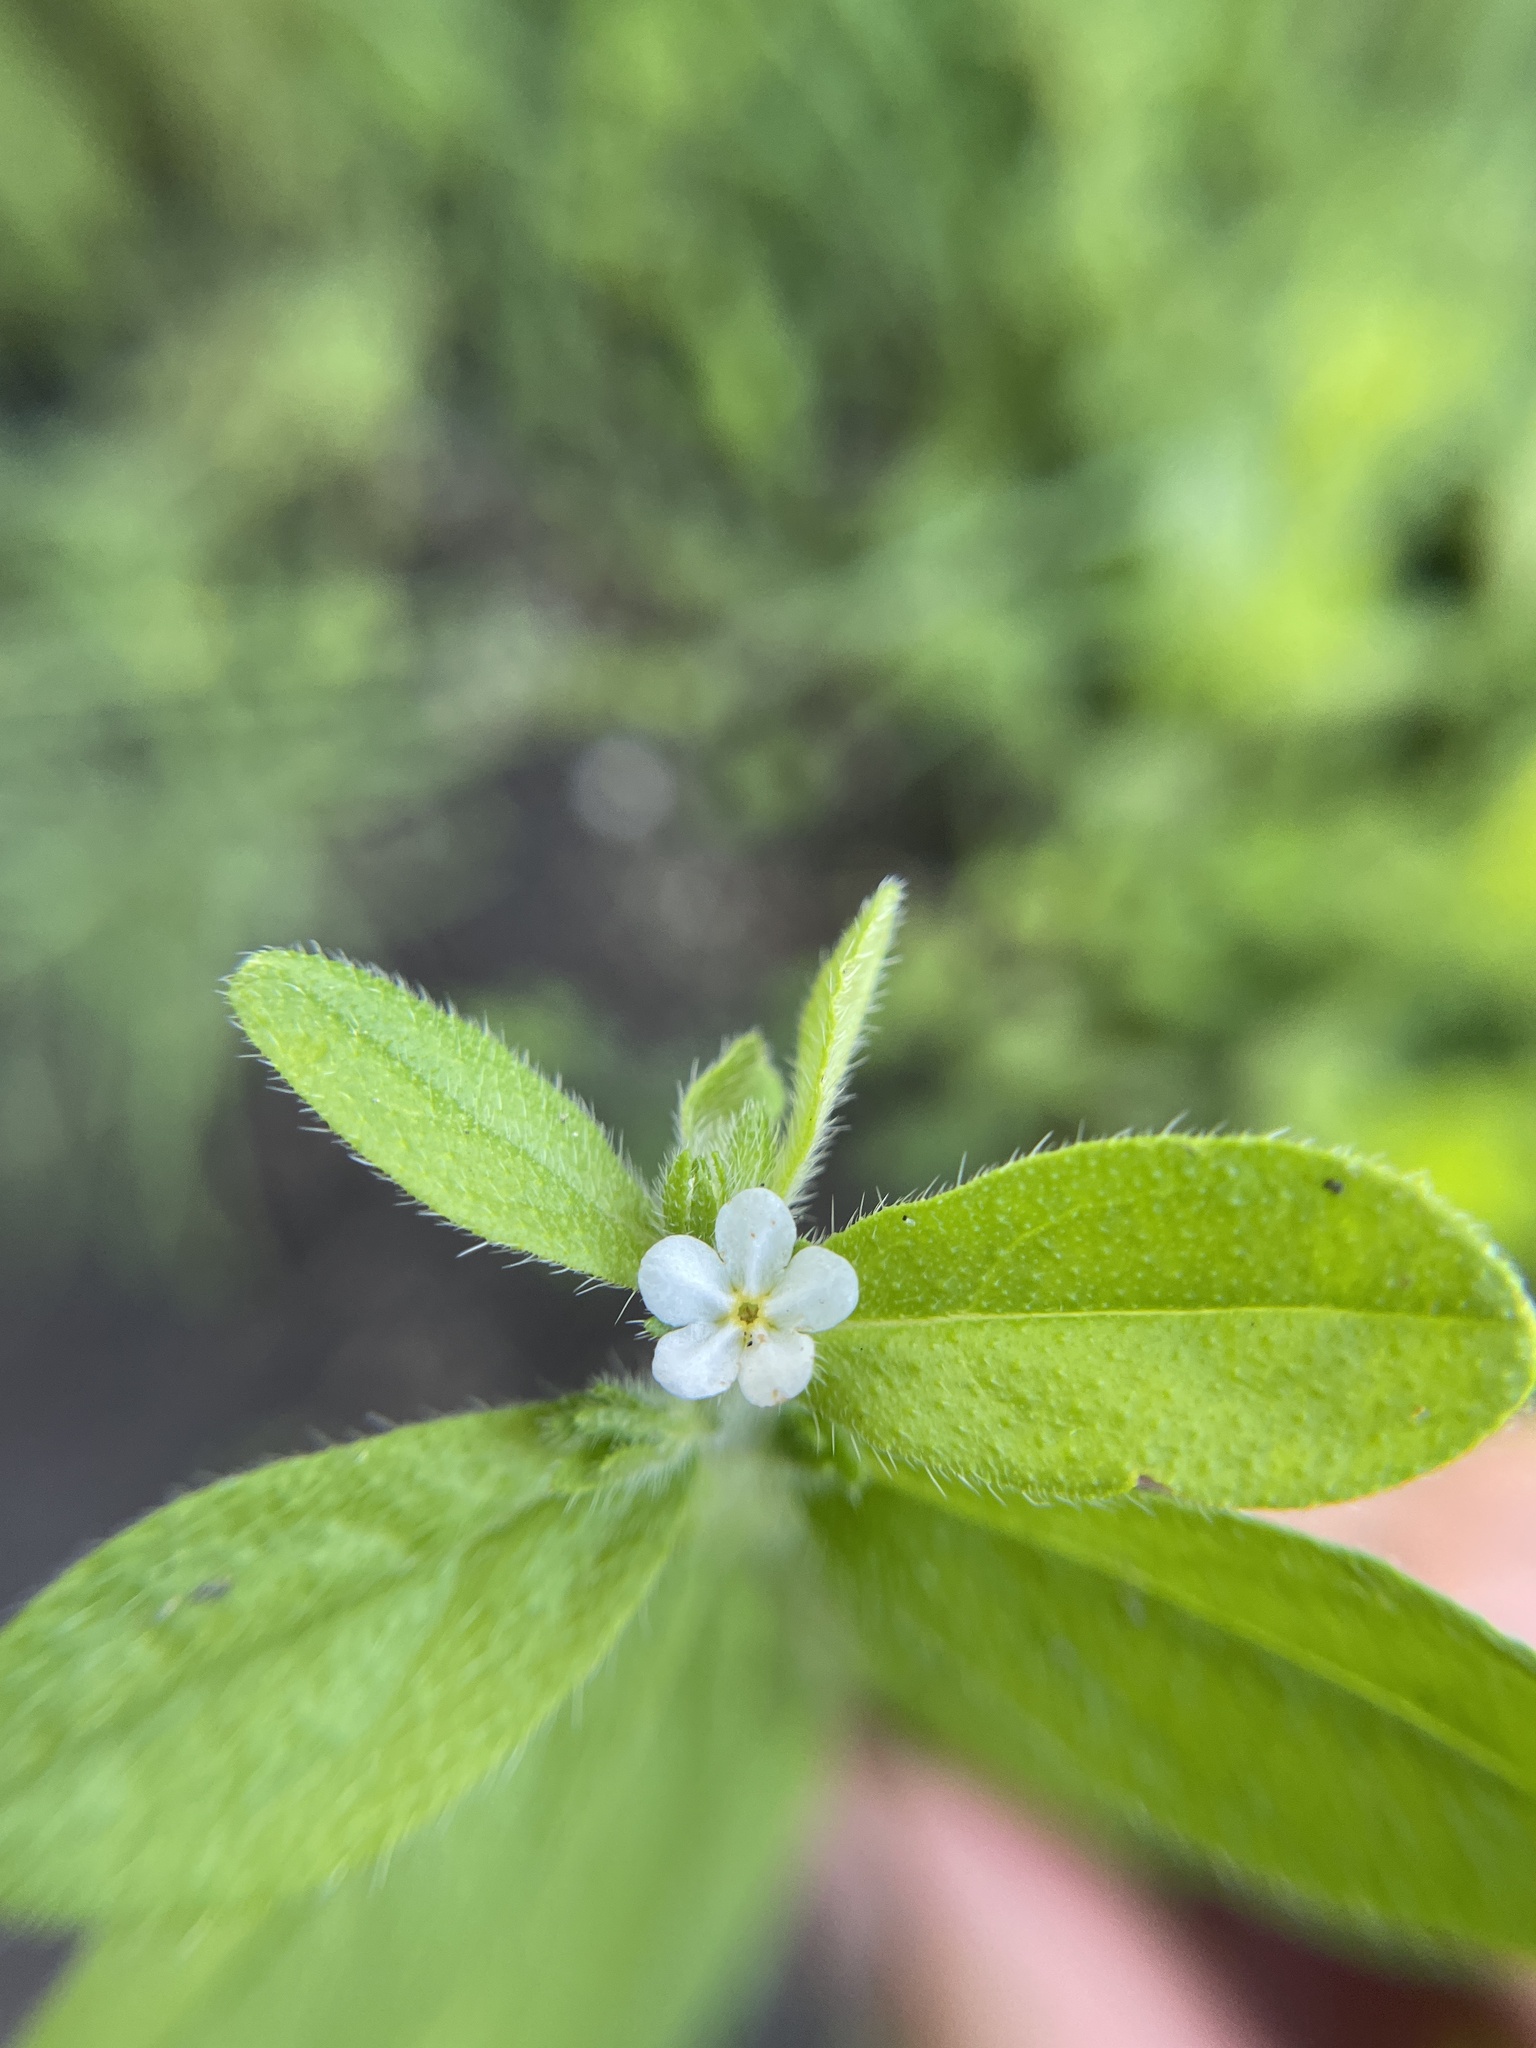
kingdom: Plantae
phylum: Tracheophyta
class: Magnoliopsida
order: Boraginales
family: Boraginaceae
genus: Lithospermum
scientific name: Lithospermum matamorense
